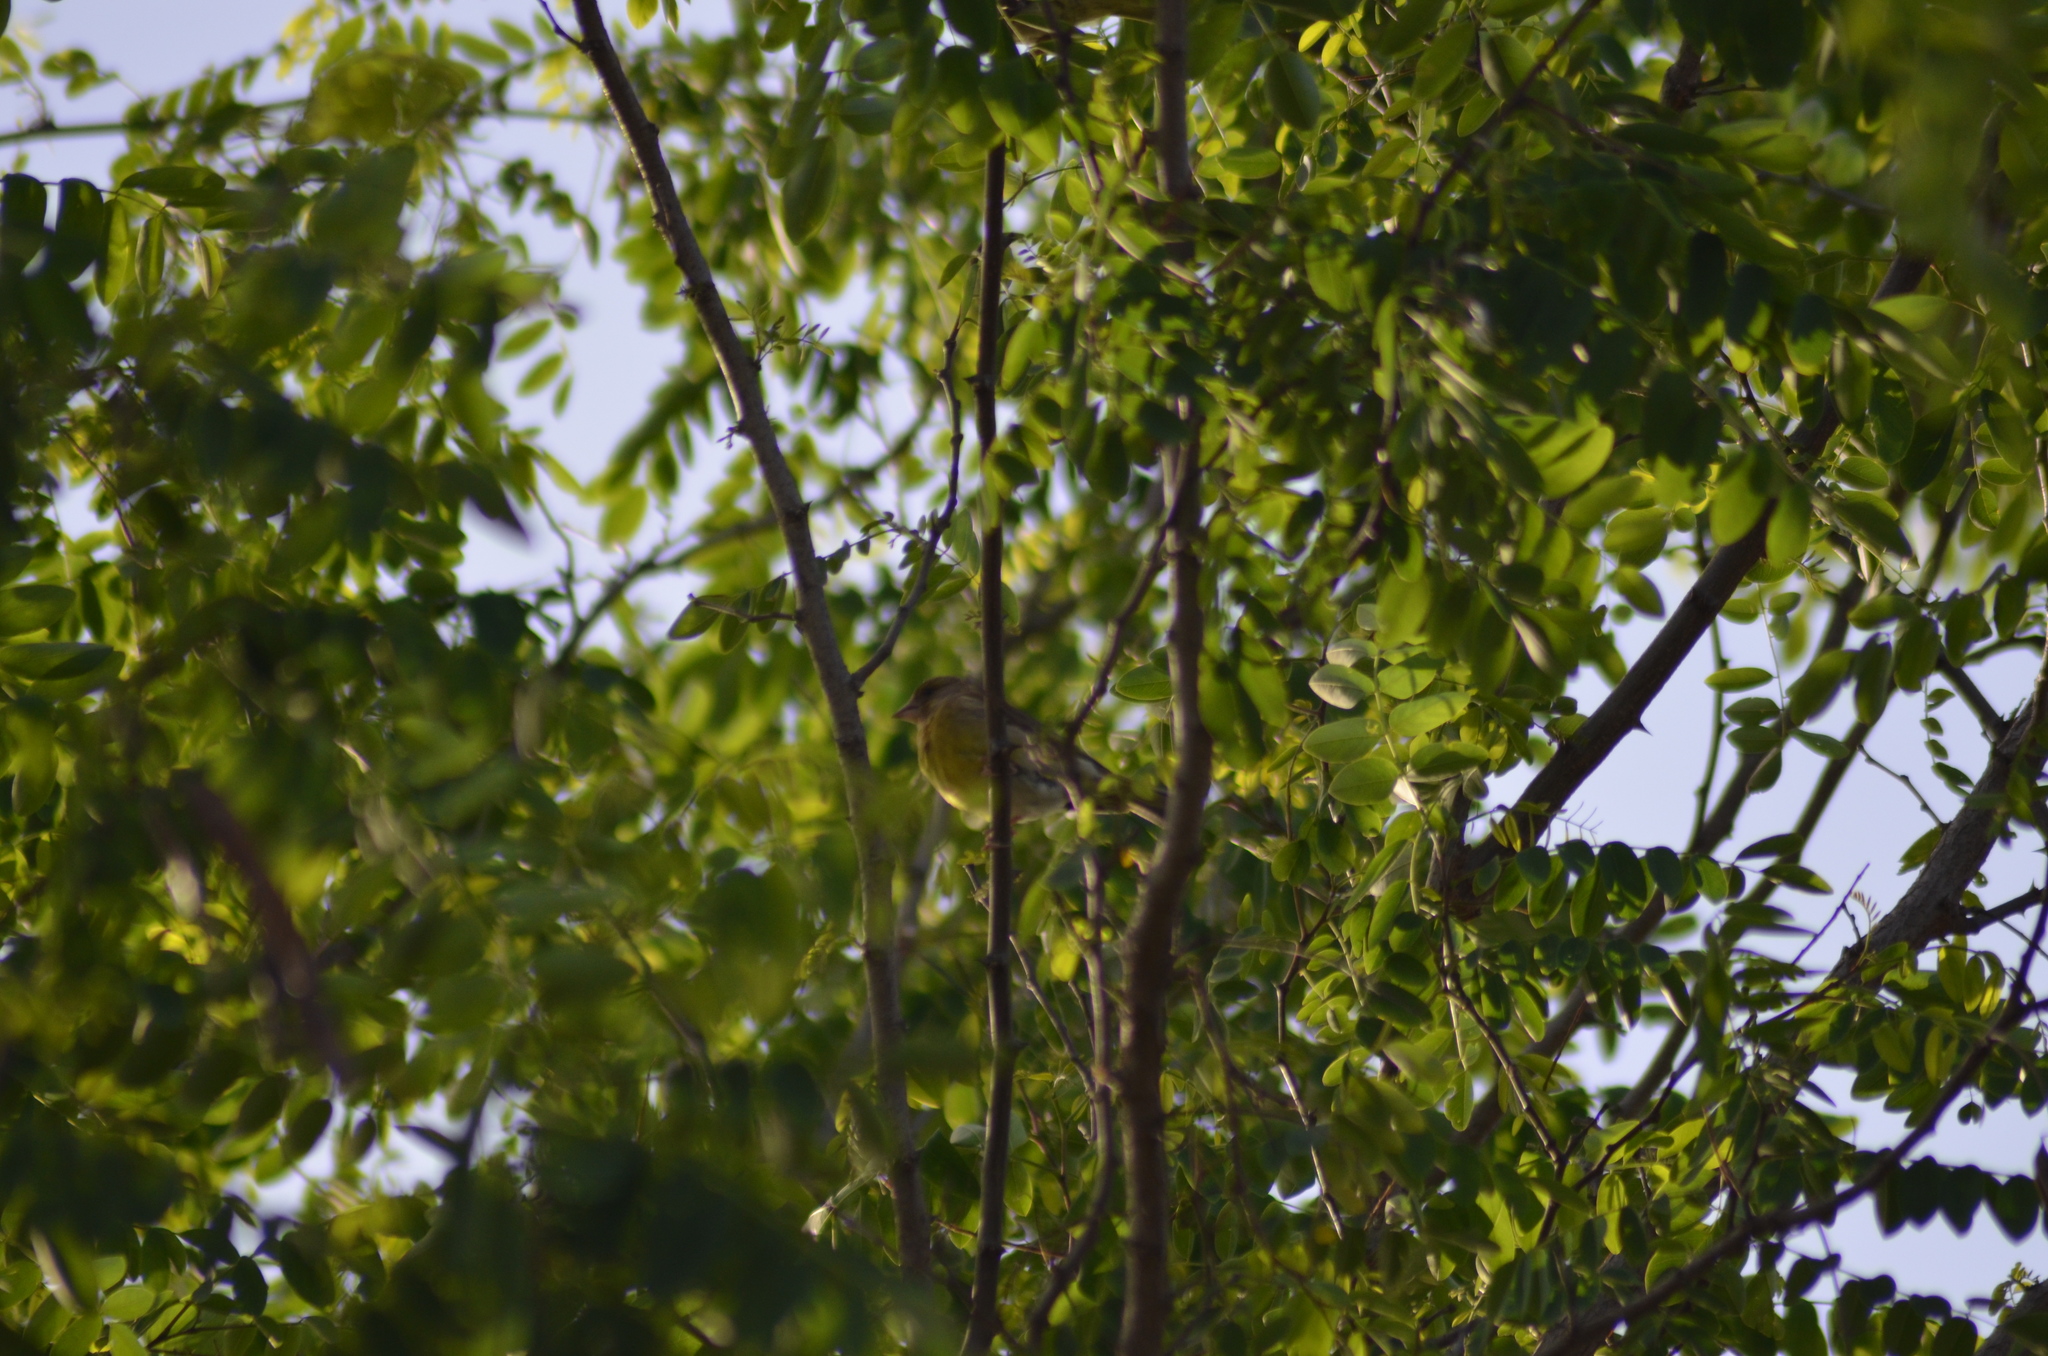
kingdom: Plantae
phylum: Tracheophyta
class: Liliopsida
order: Poales
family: Poaceae
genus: Chloris
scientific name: Chloris chloris
